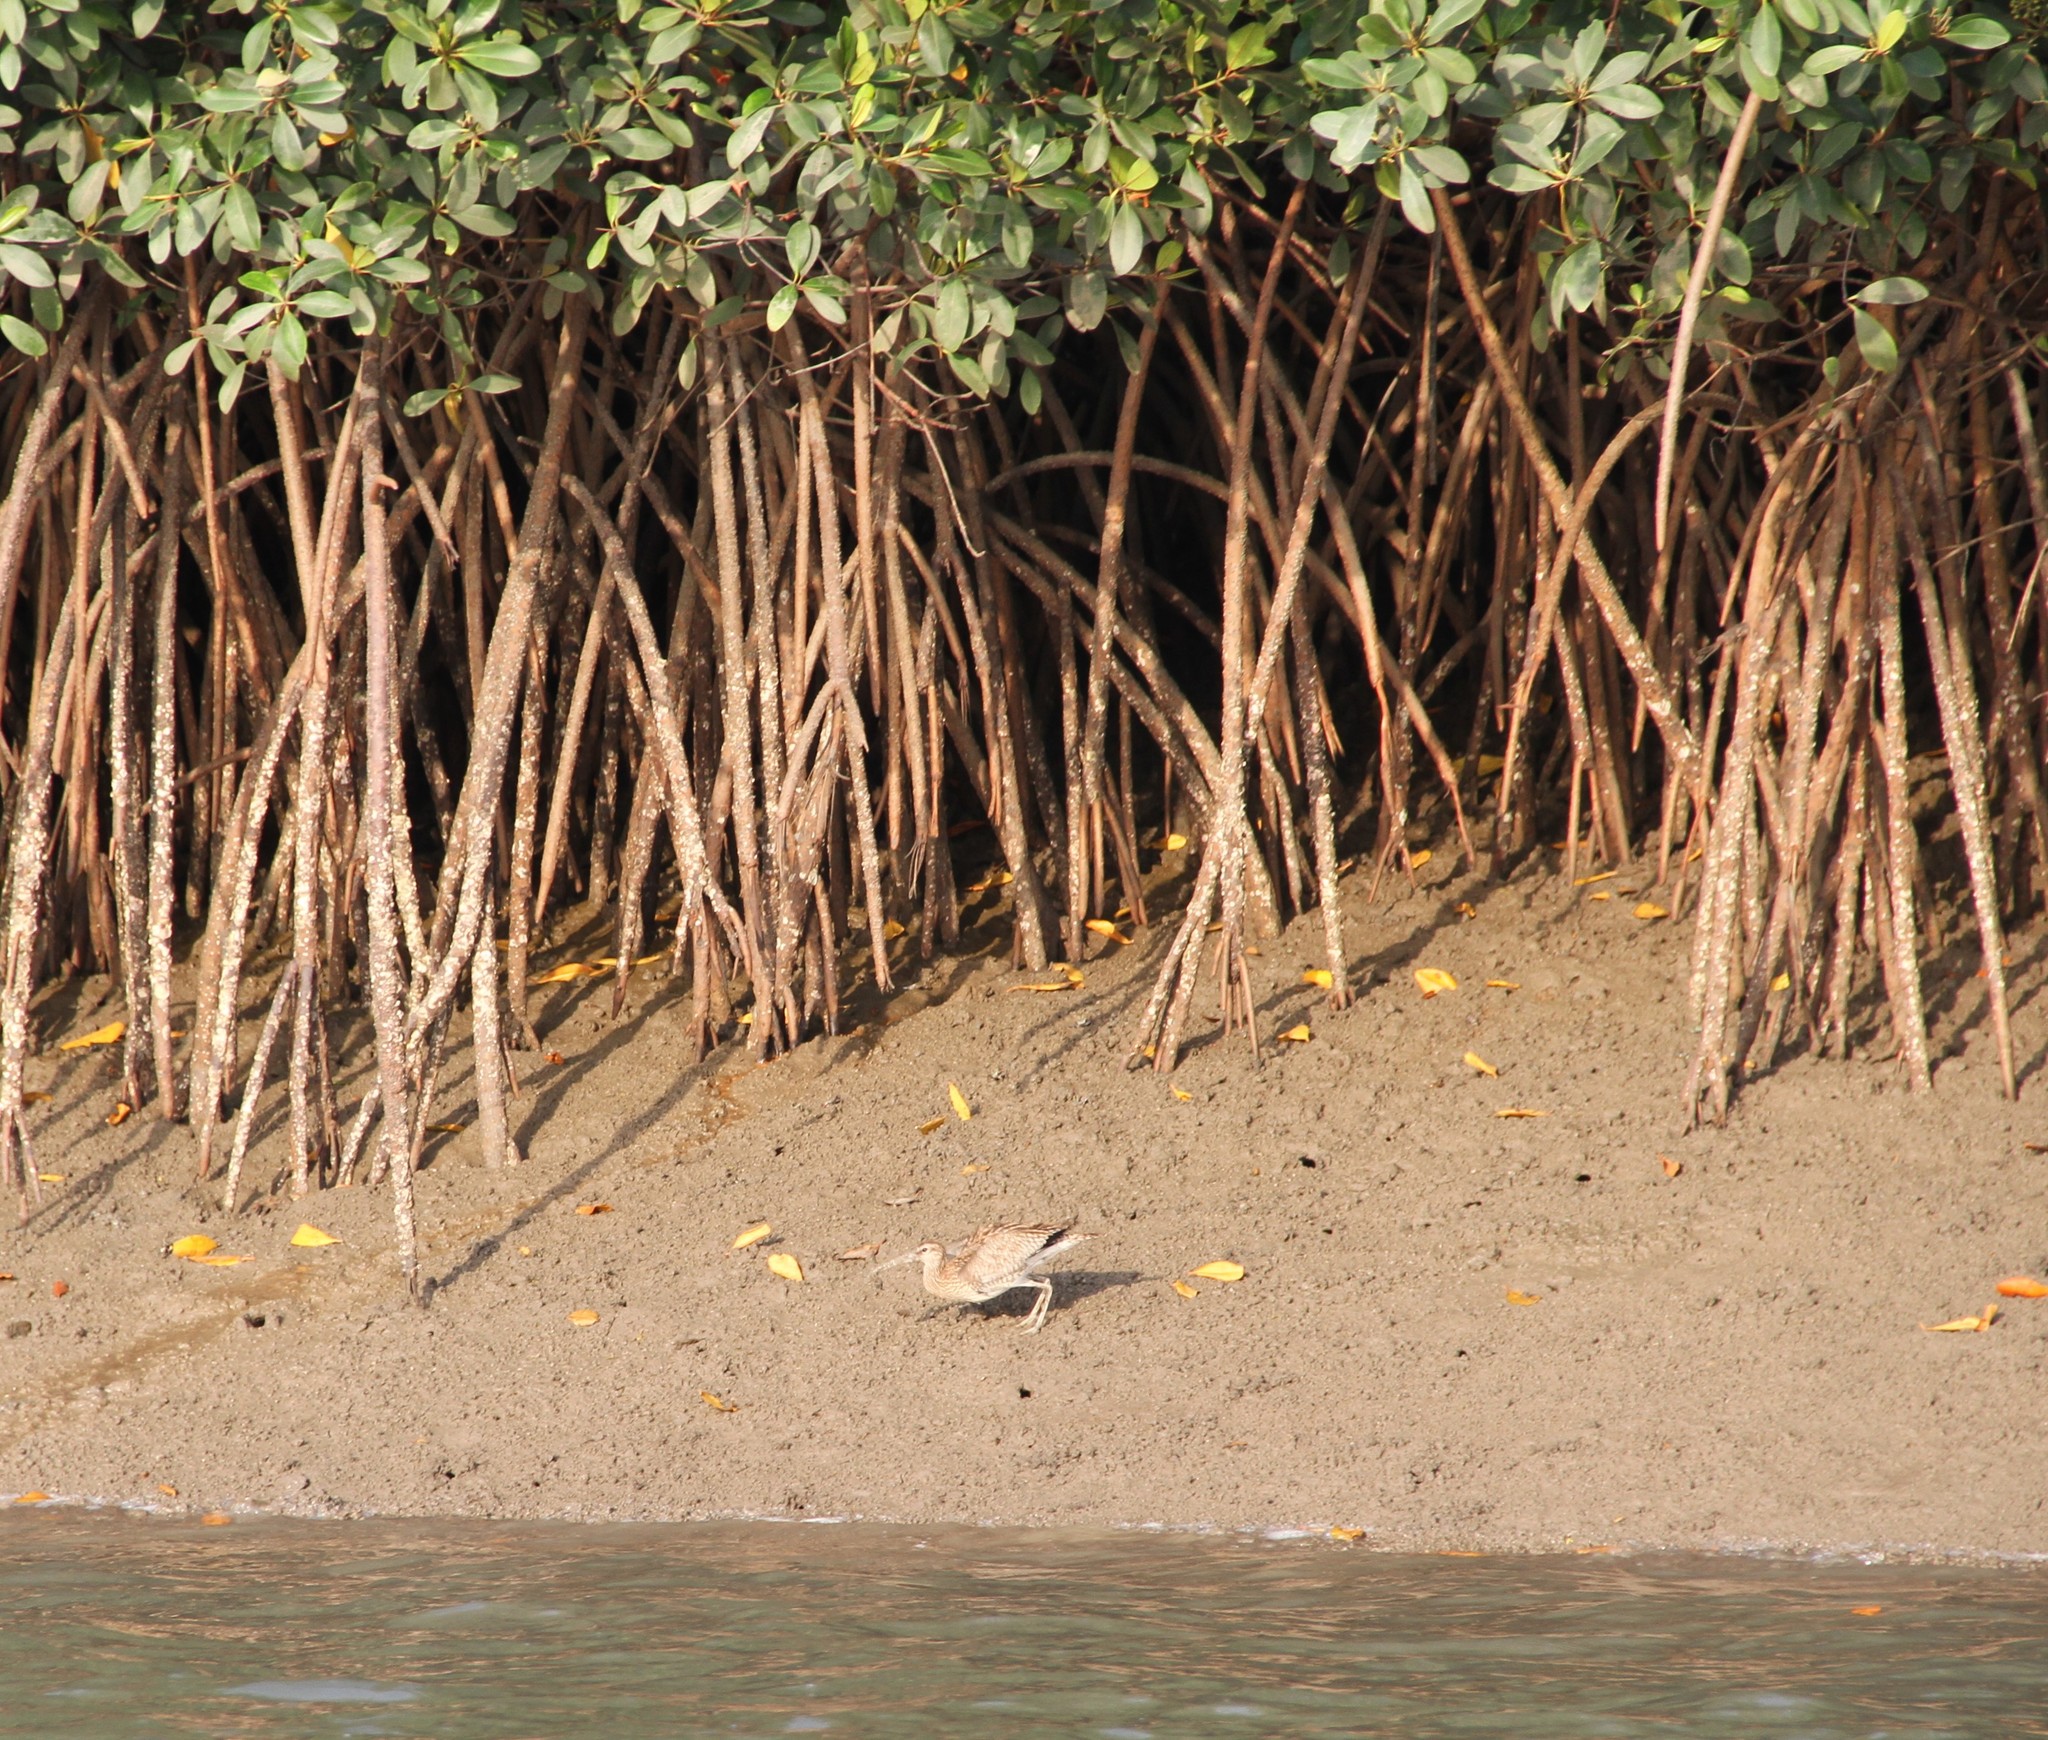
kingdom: Animalia
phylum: Chordata
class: Aves
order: Charadriiformes
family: Scolopacidae
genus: Numenius
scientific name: Numenius phaeopus
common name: Whimbrel
